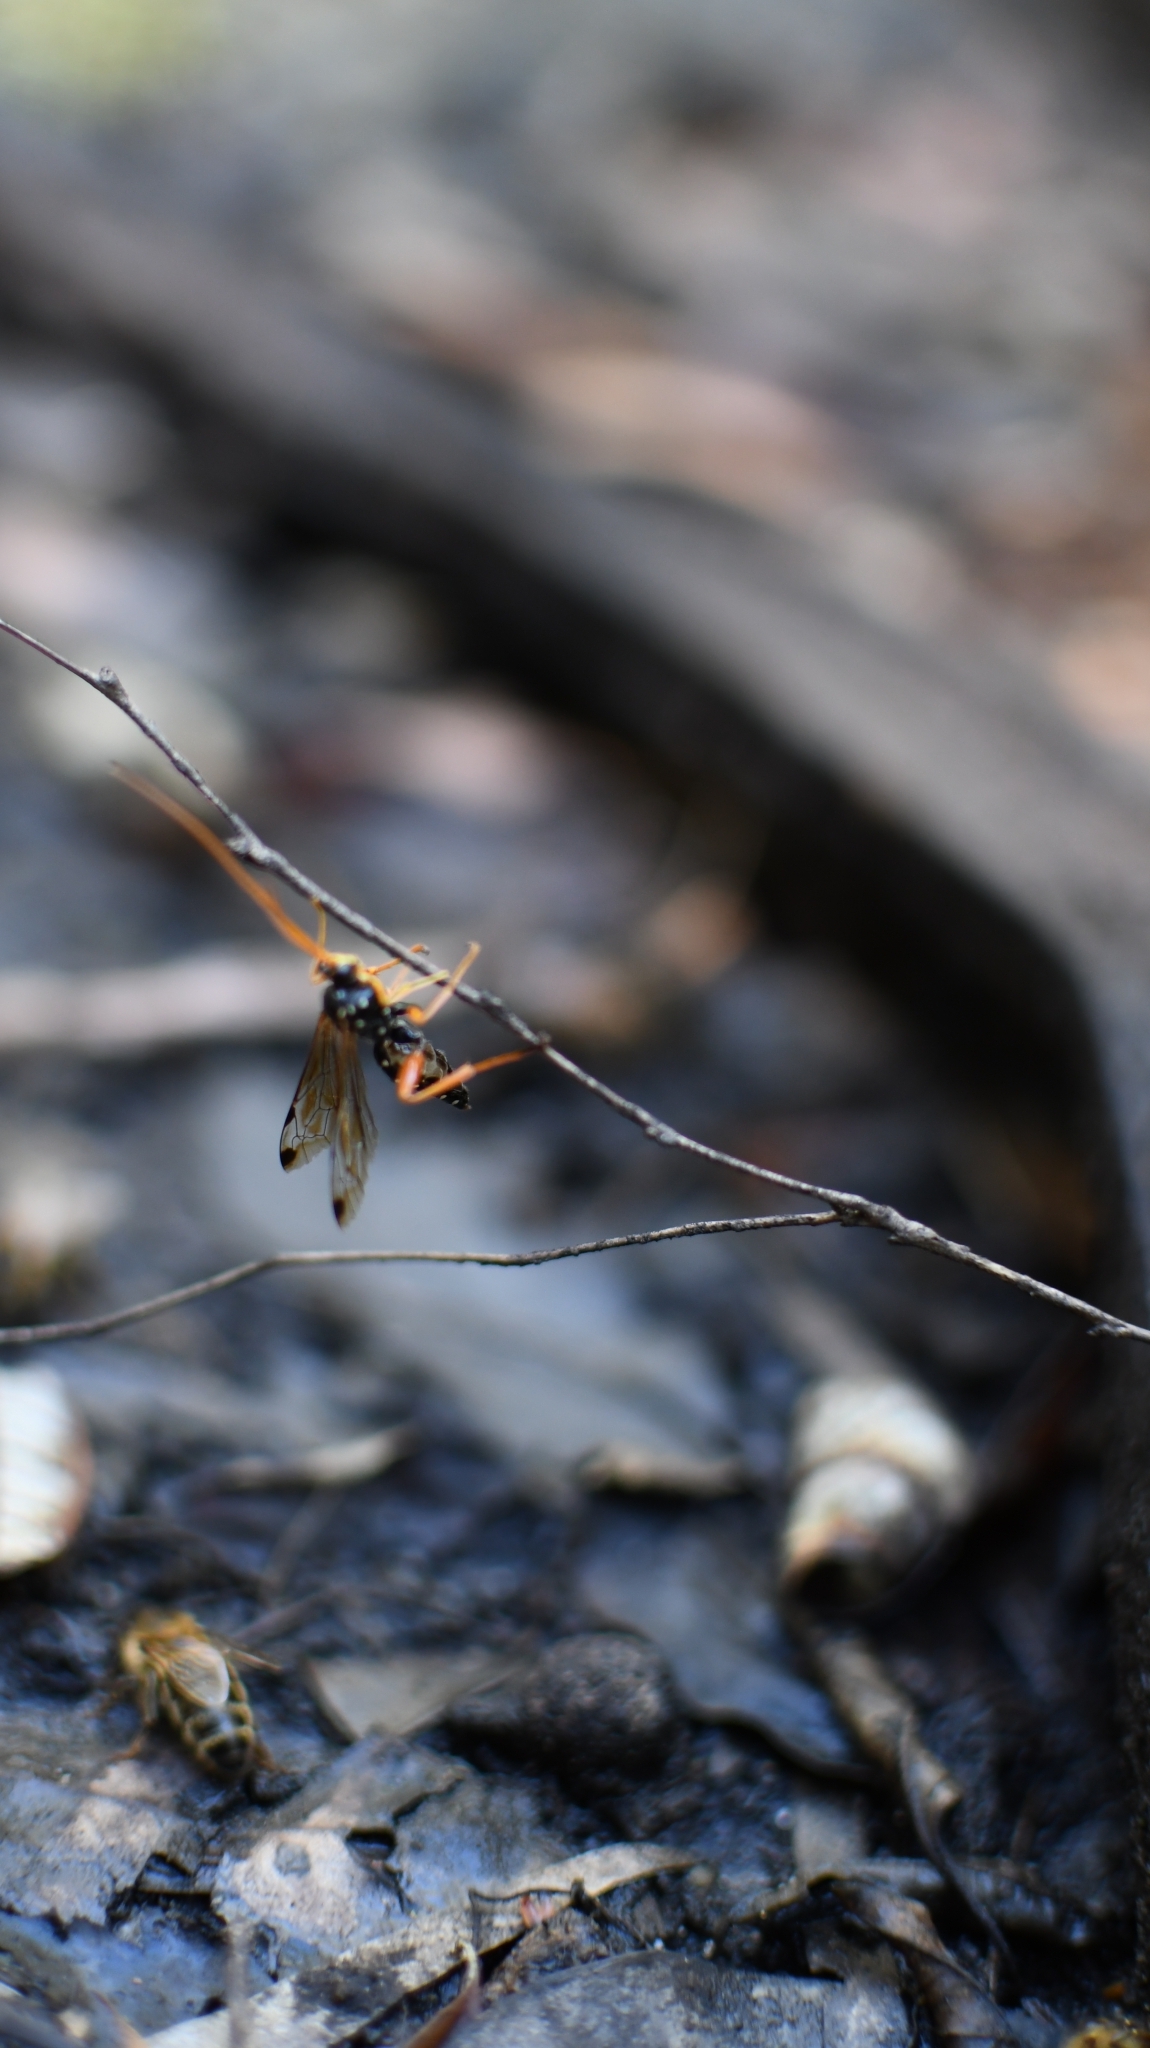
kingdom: Animalia
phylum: Arthropoda
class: Insecta
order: Hymenoptera
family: Ichneumonidae
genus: Echthromorpha
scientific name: Echthromorpha intricatoria
